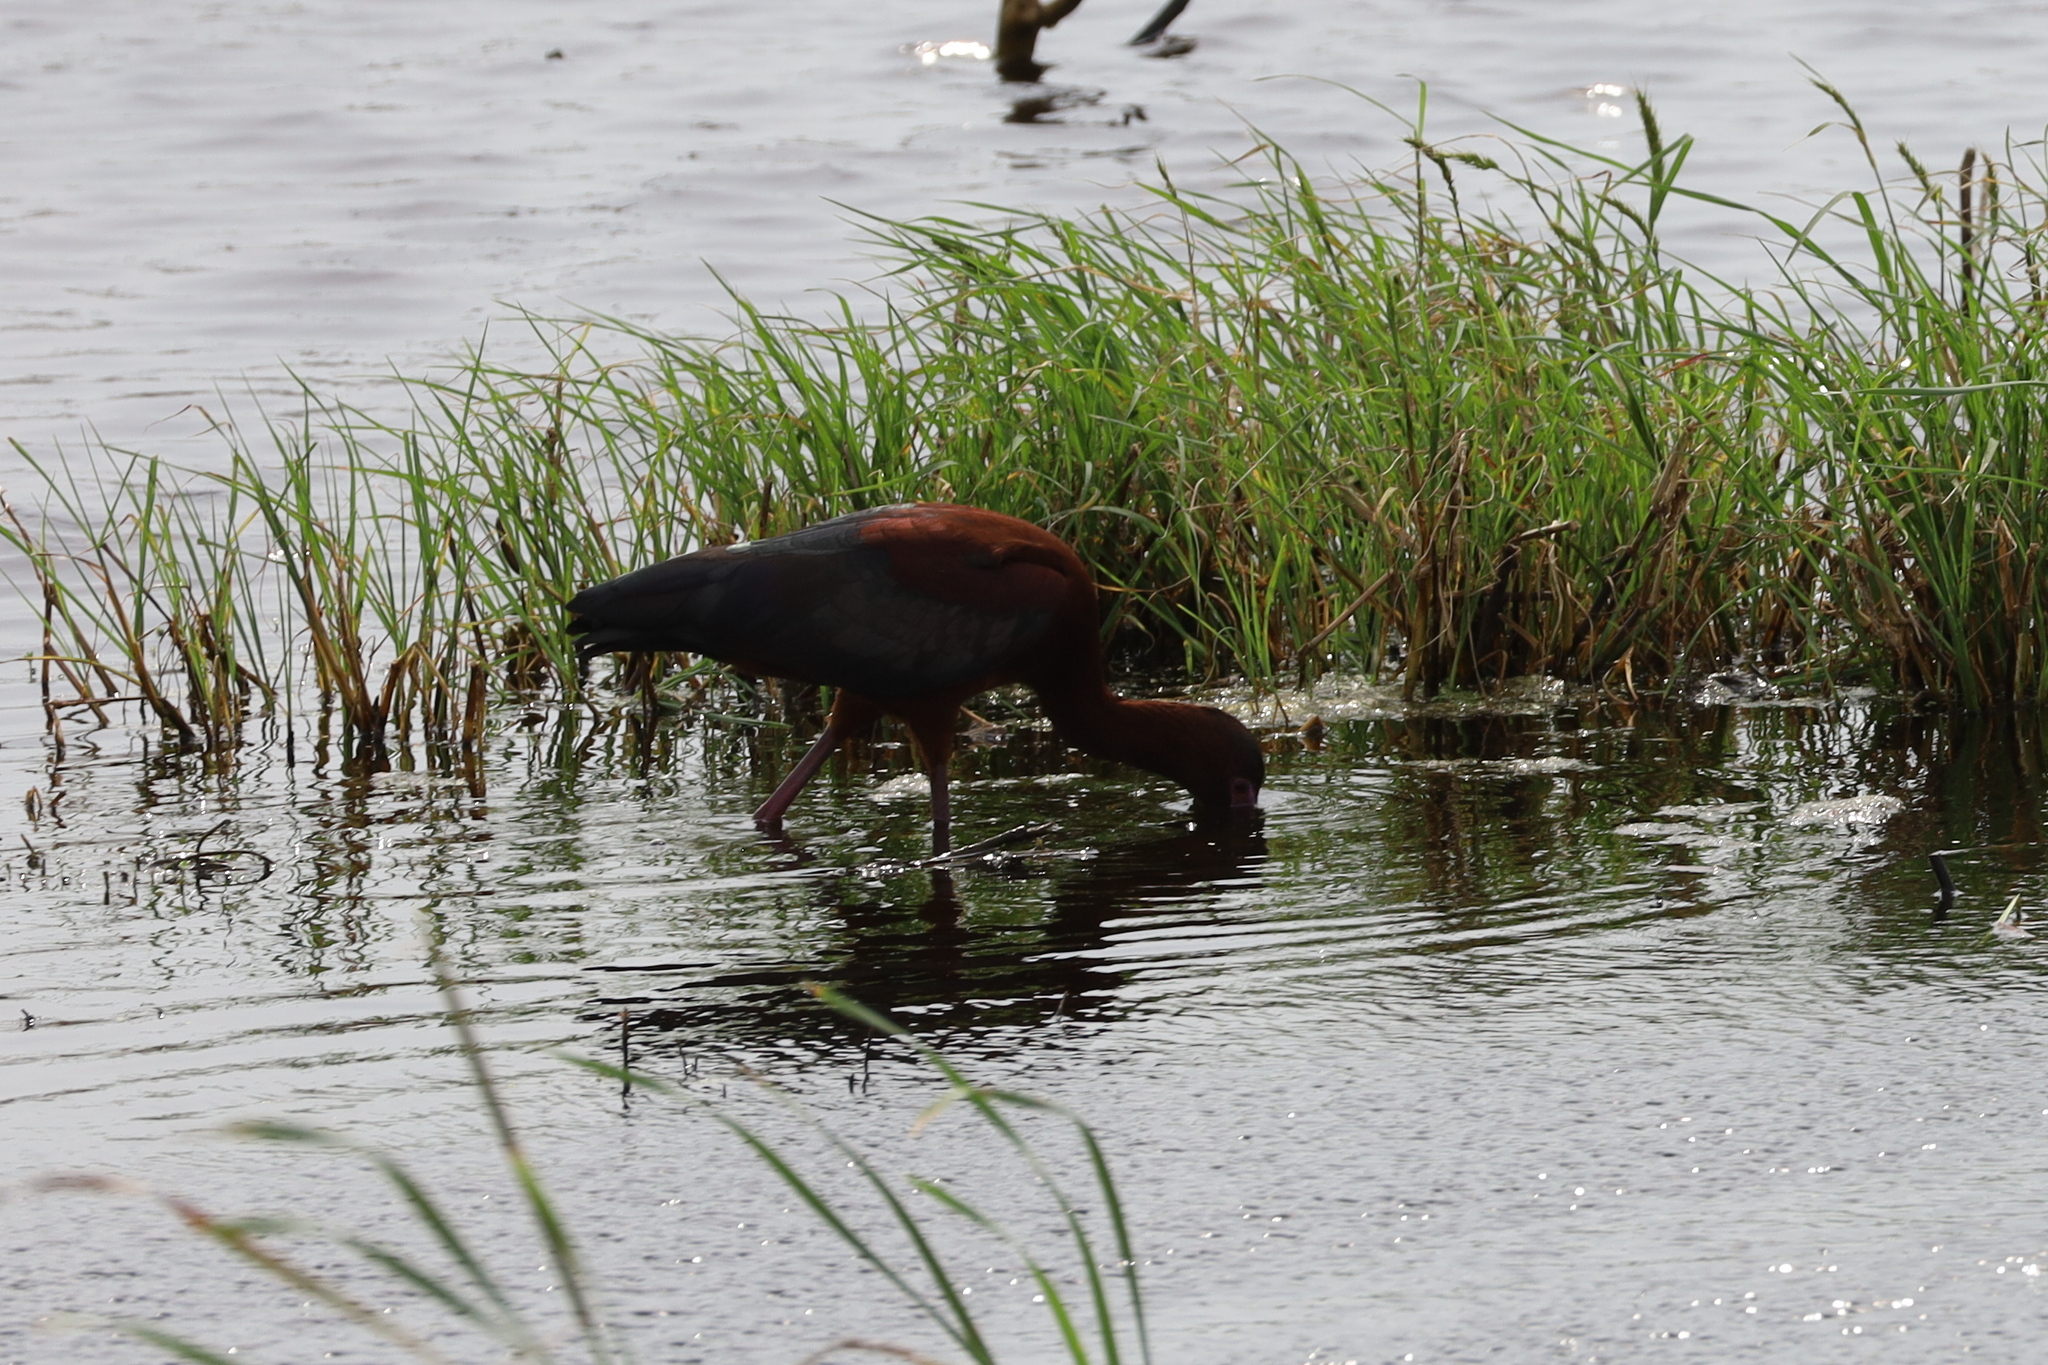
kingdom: Animalia
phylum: Chordata
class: Aves
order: Pelecaniformes
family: Threskiornithidae
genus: Plegadis
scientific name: Plegadis chihi
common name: White-faced ibis
